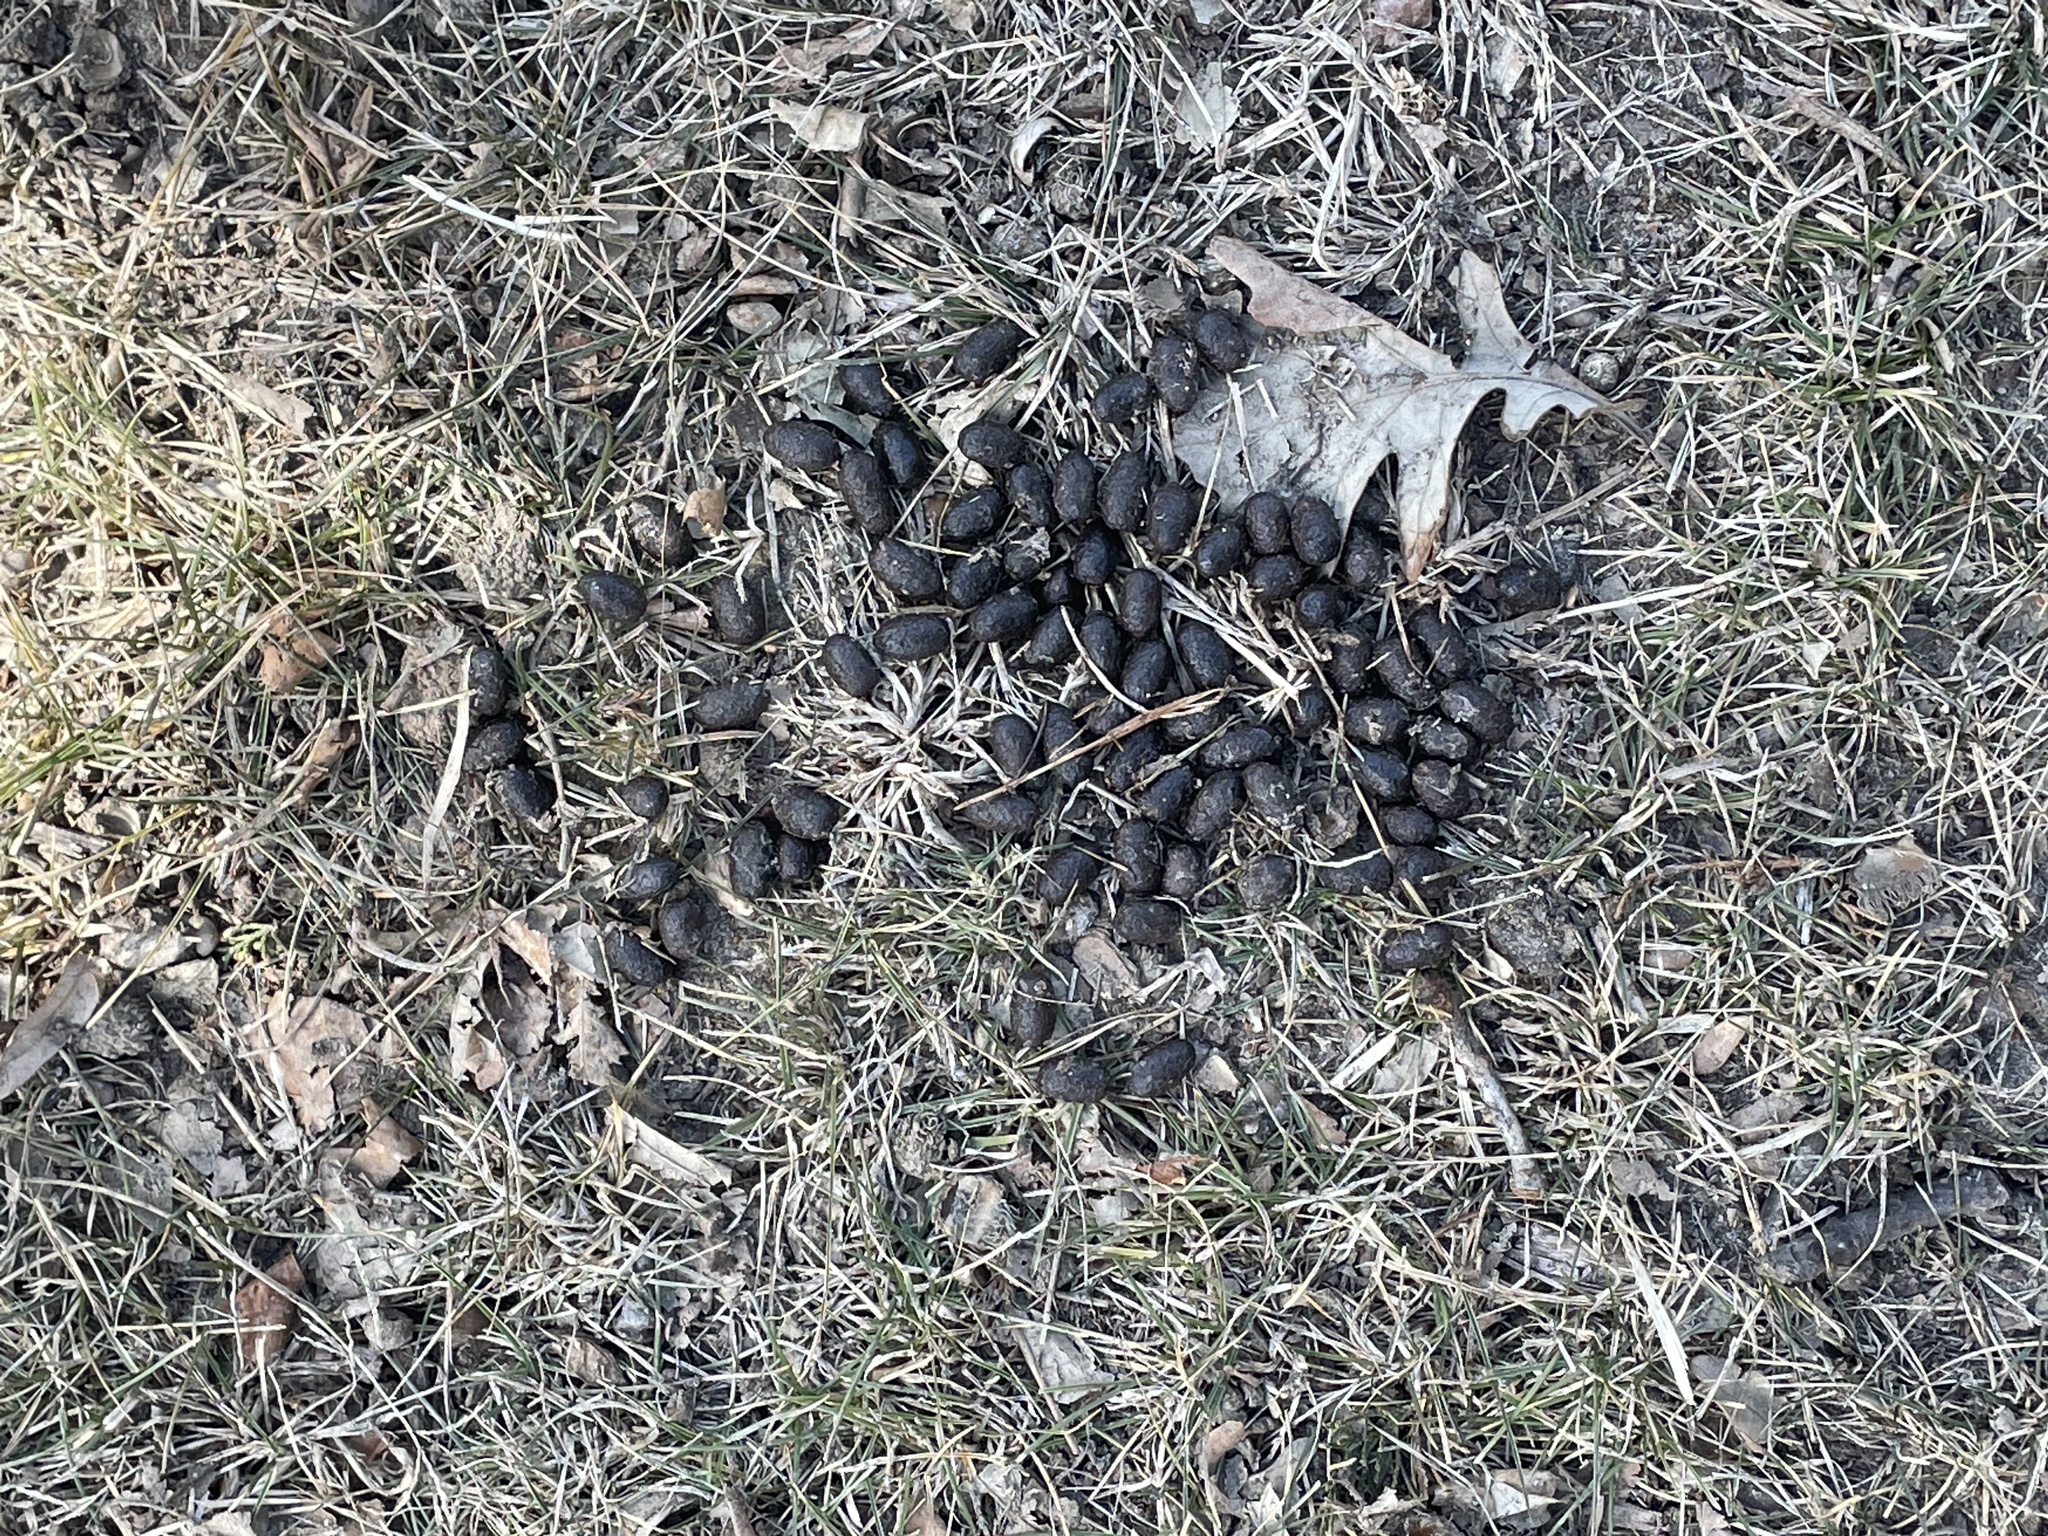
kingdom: Animalia
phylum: Chordata
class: Mammalia
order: Artiodactyla
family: Cervidae
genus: Odocoileus
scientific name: Odocoileus virginianus
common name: White-tailed deer
